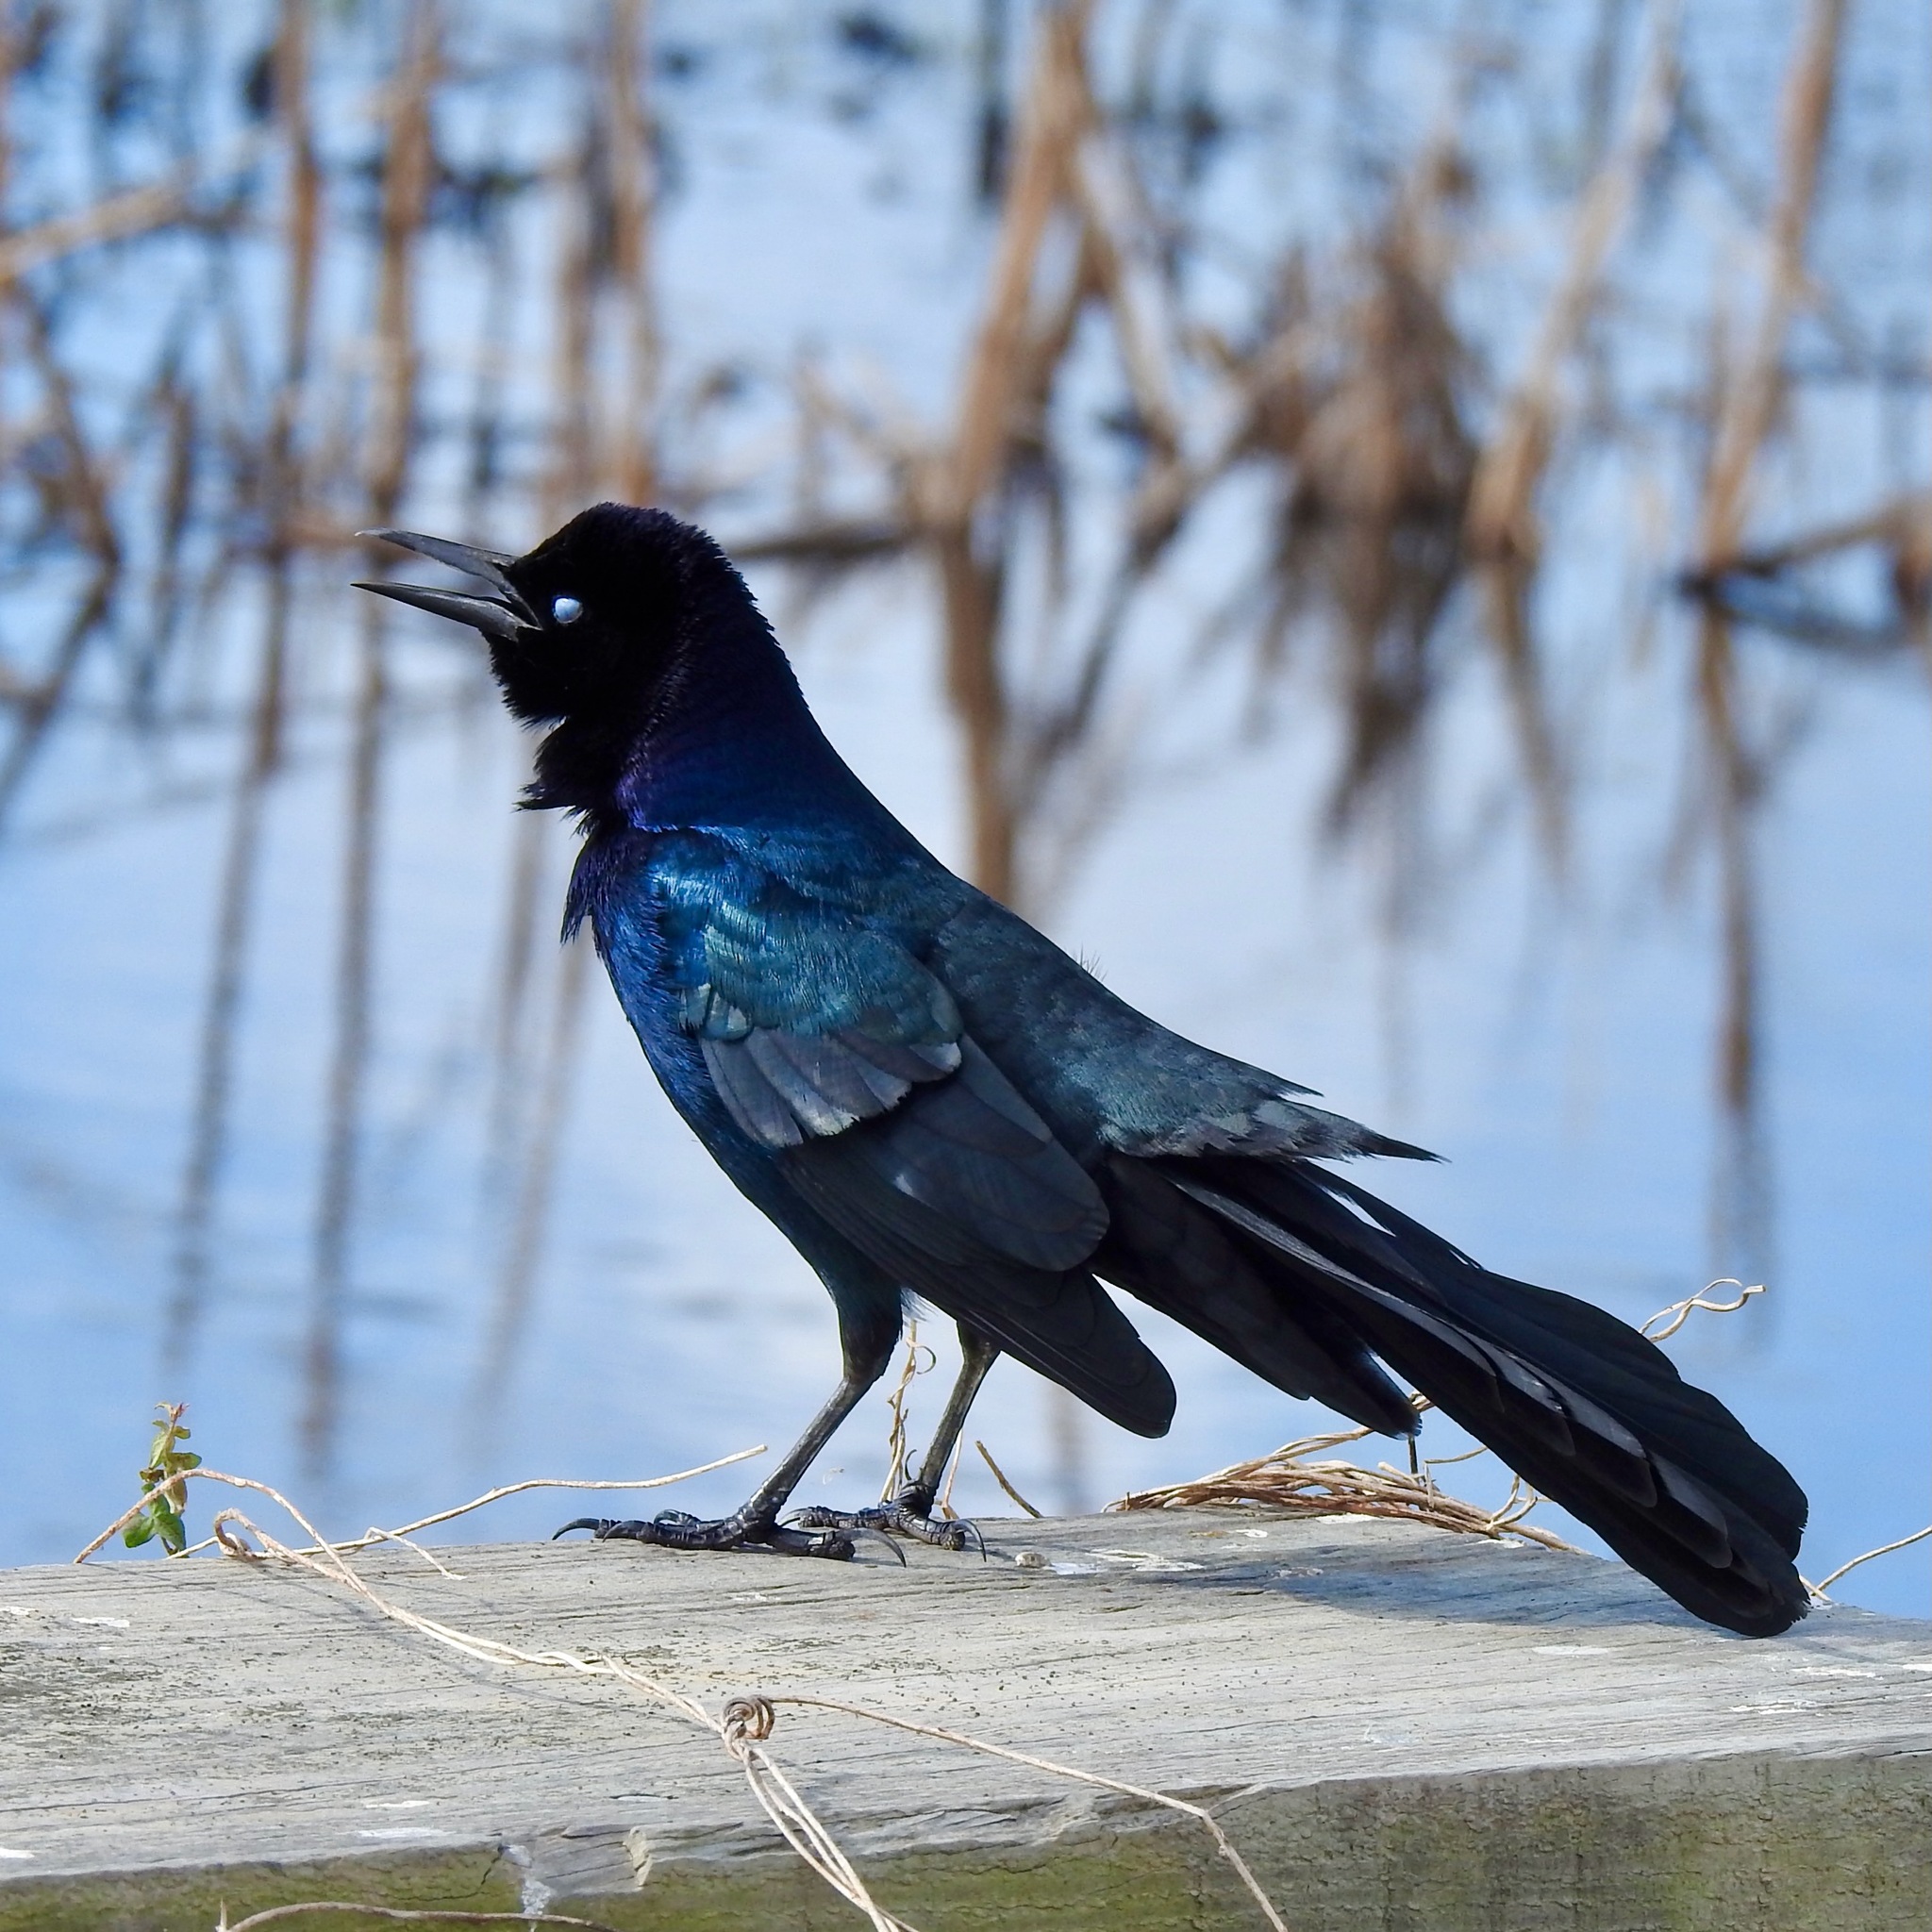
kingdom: Animalia
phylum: Chordata
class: Aves
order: Passeriformes
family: Icteridae
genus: Quiscalus
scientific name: Quiscalus major
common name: Boat-tailed grackle
